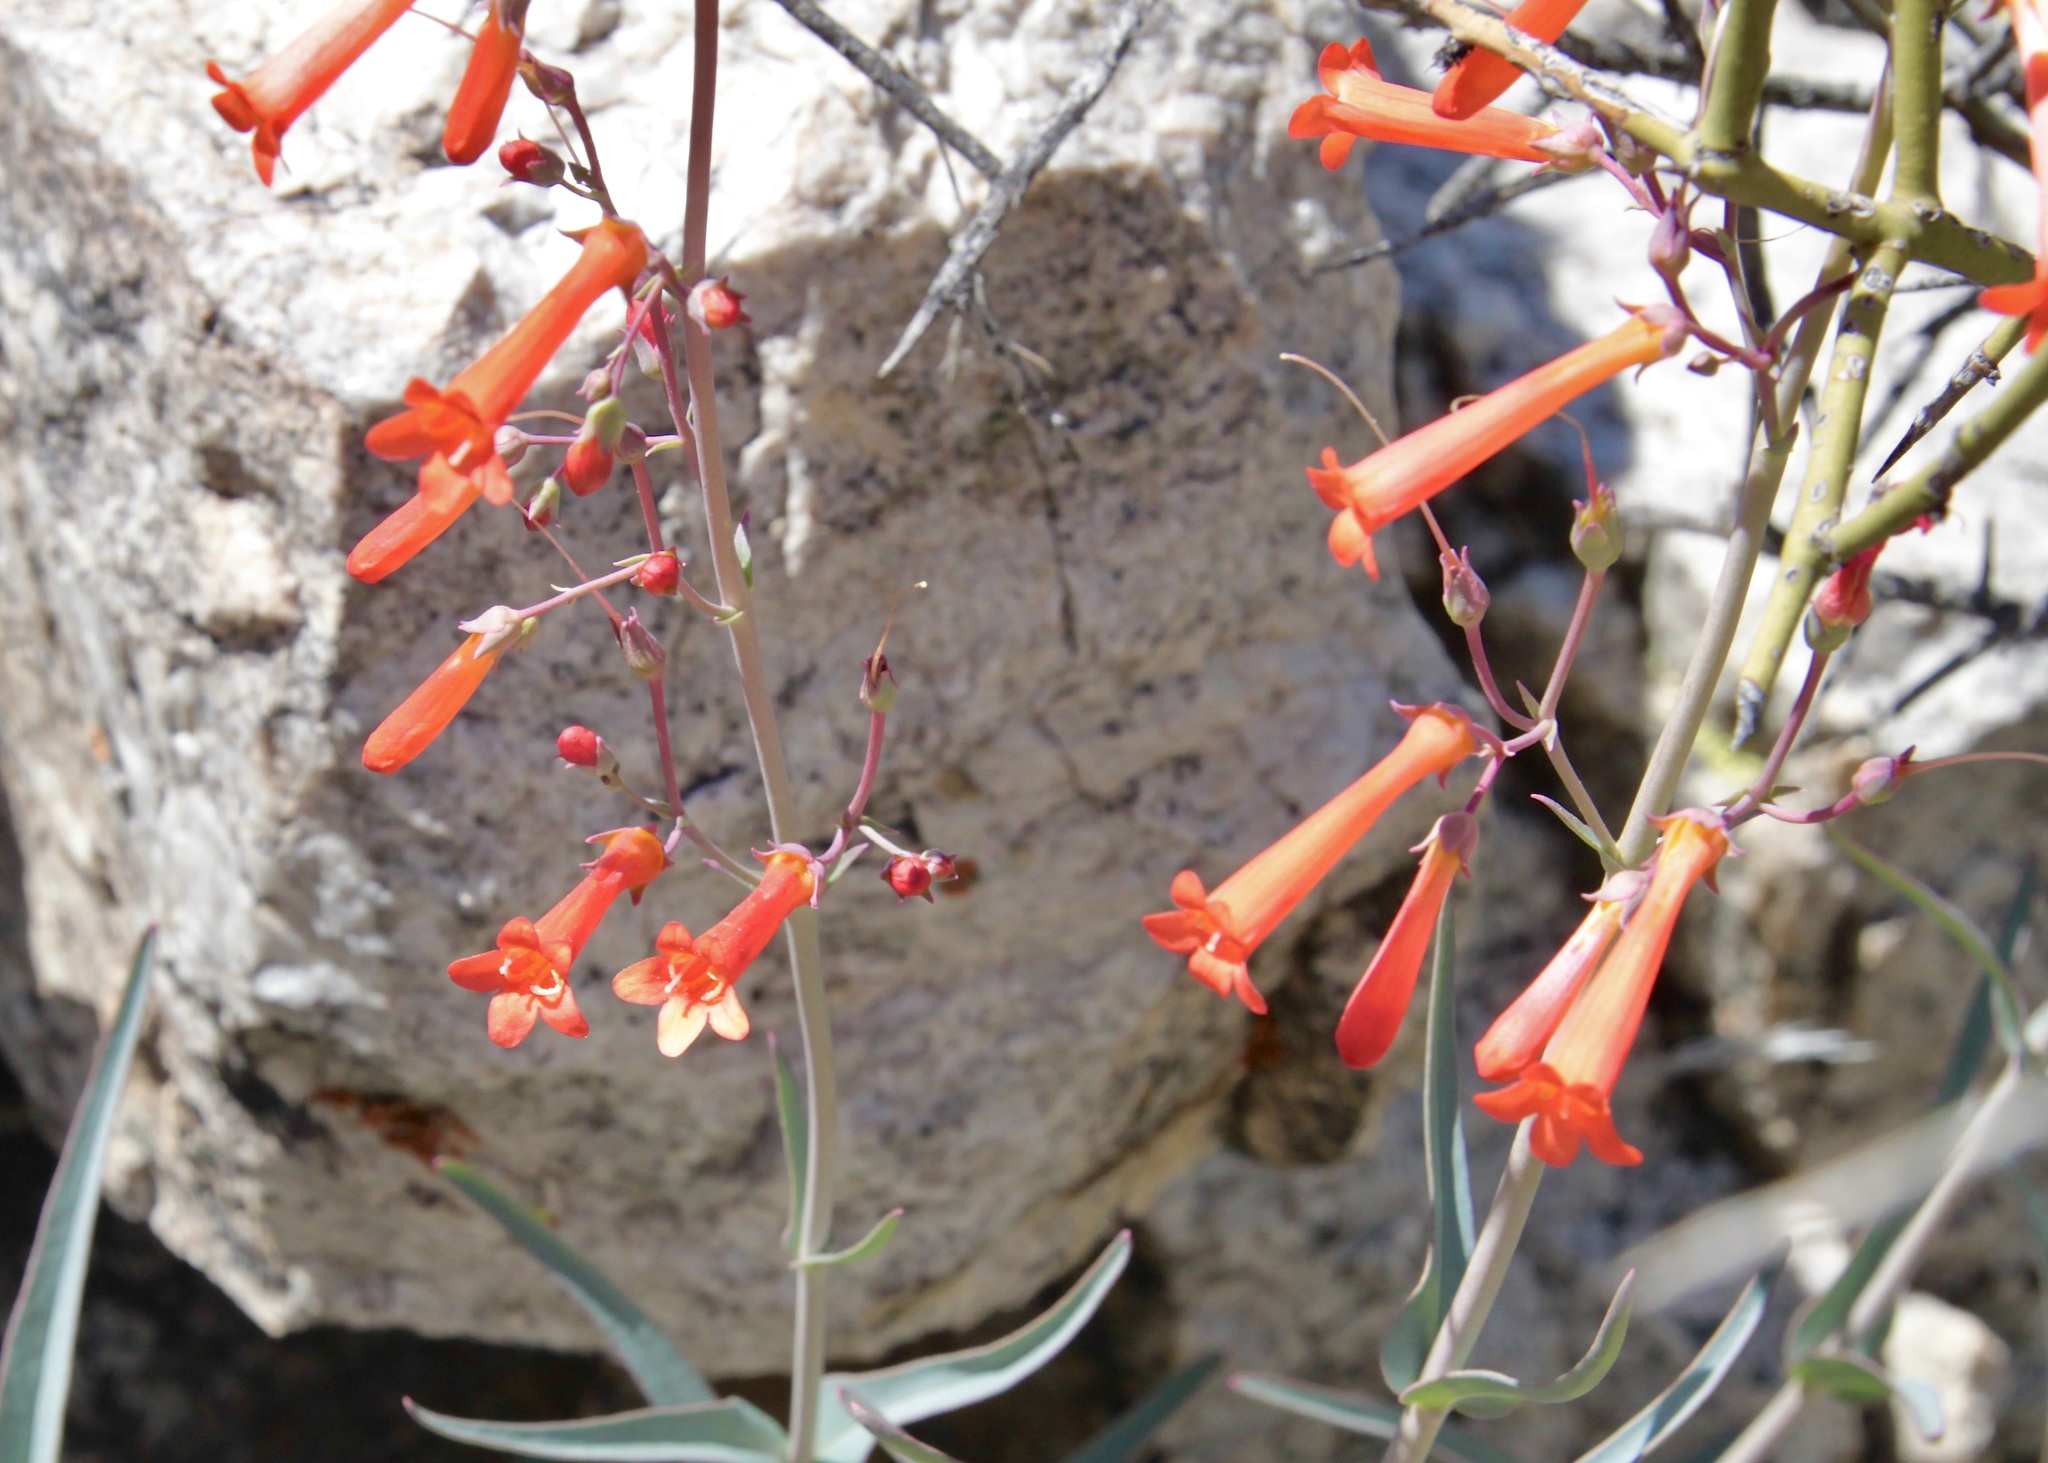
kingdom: Plantae
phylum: Tracheophyta
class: Magnoliopsida
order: Lamiales
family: Plantaginaceae
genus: Penstemon
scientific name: Penstemon subulatus
